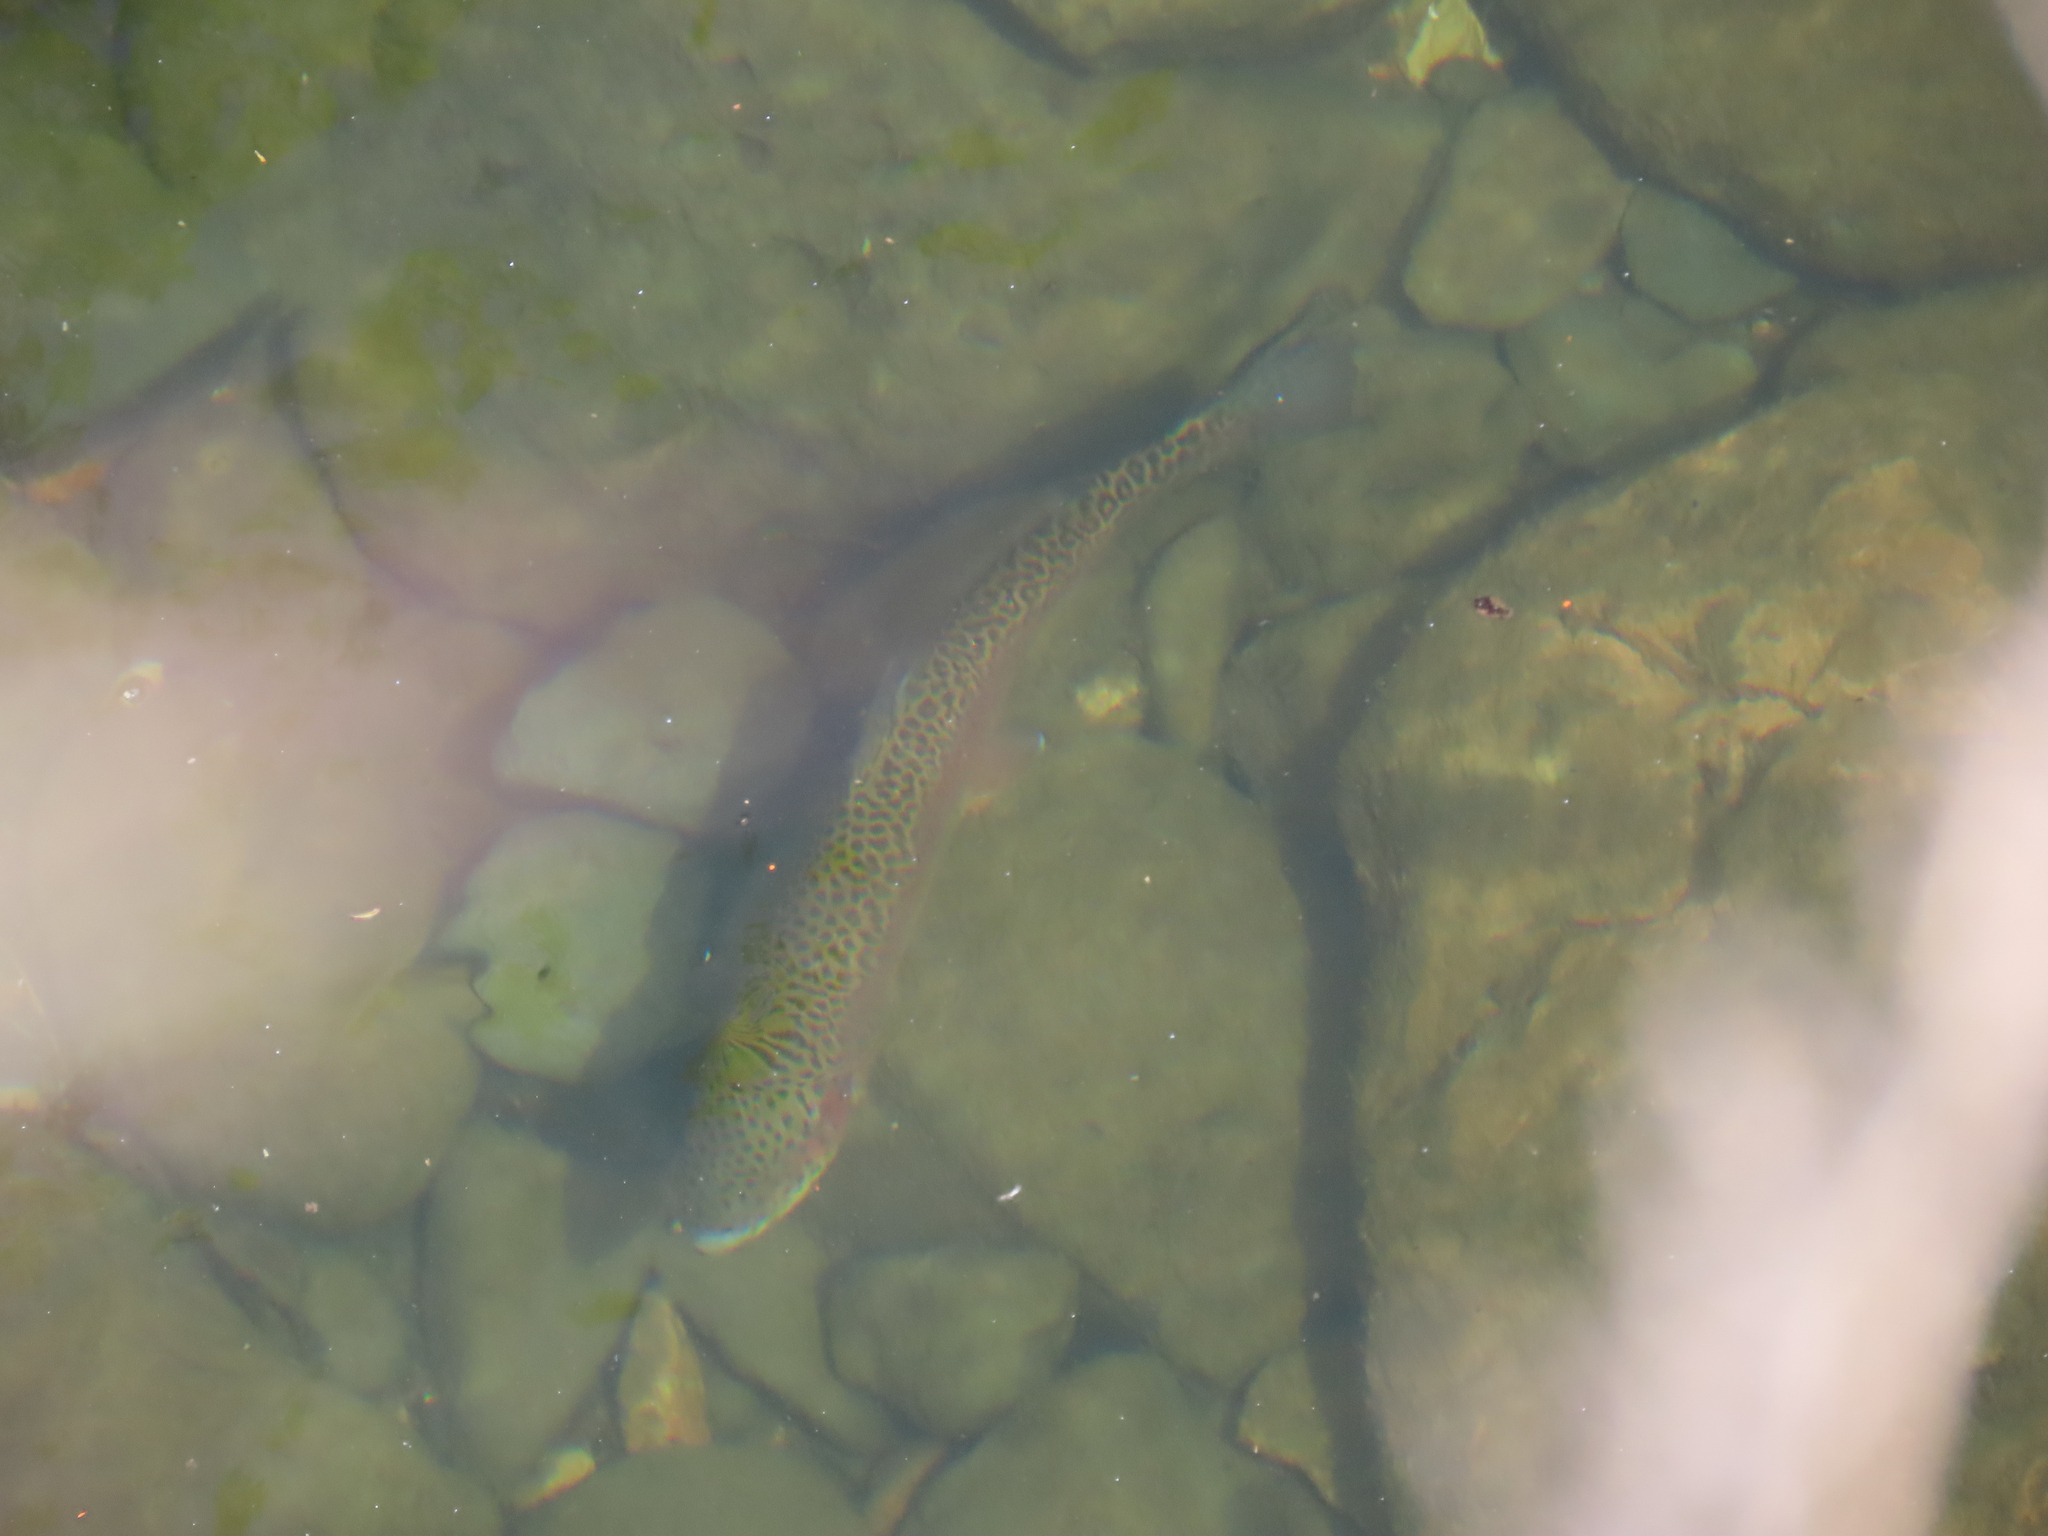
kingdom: Animalia
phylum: Chordata
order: Salmoniformes
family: Salmonidae
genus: Oncorhynchus
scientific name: Oncorhynchus mykiss
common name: Rainbow trout
